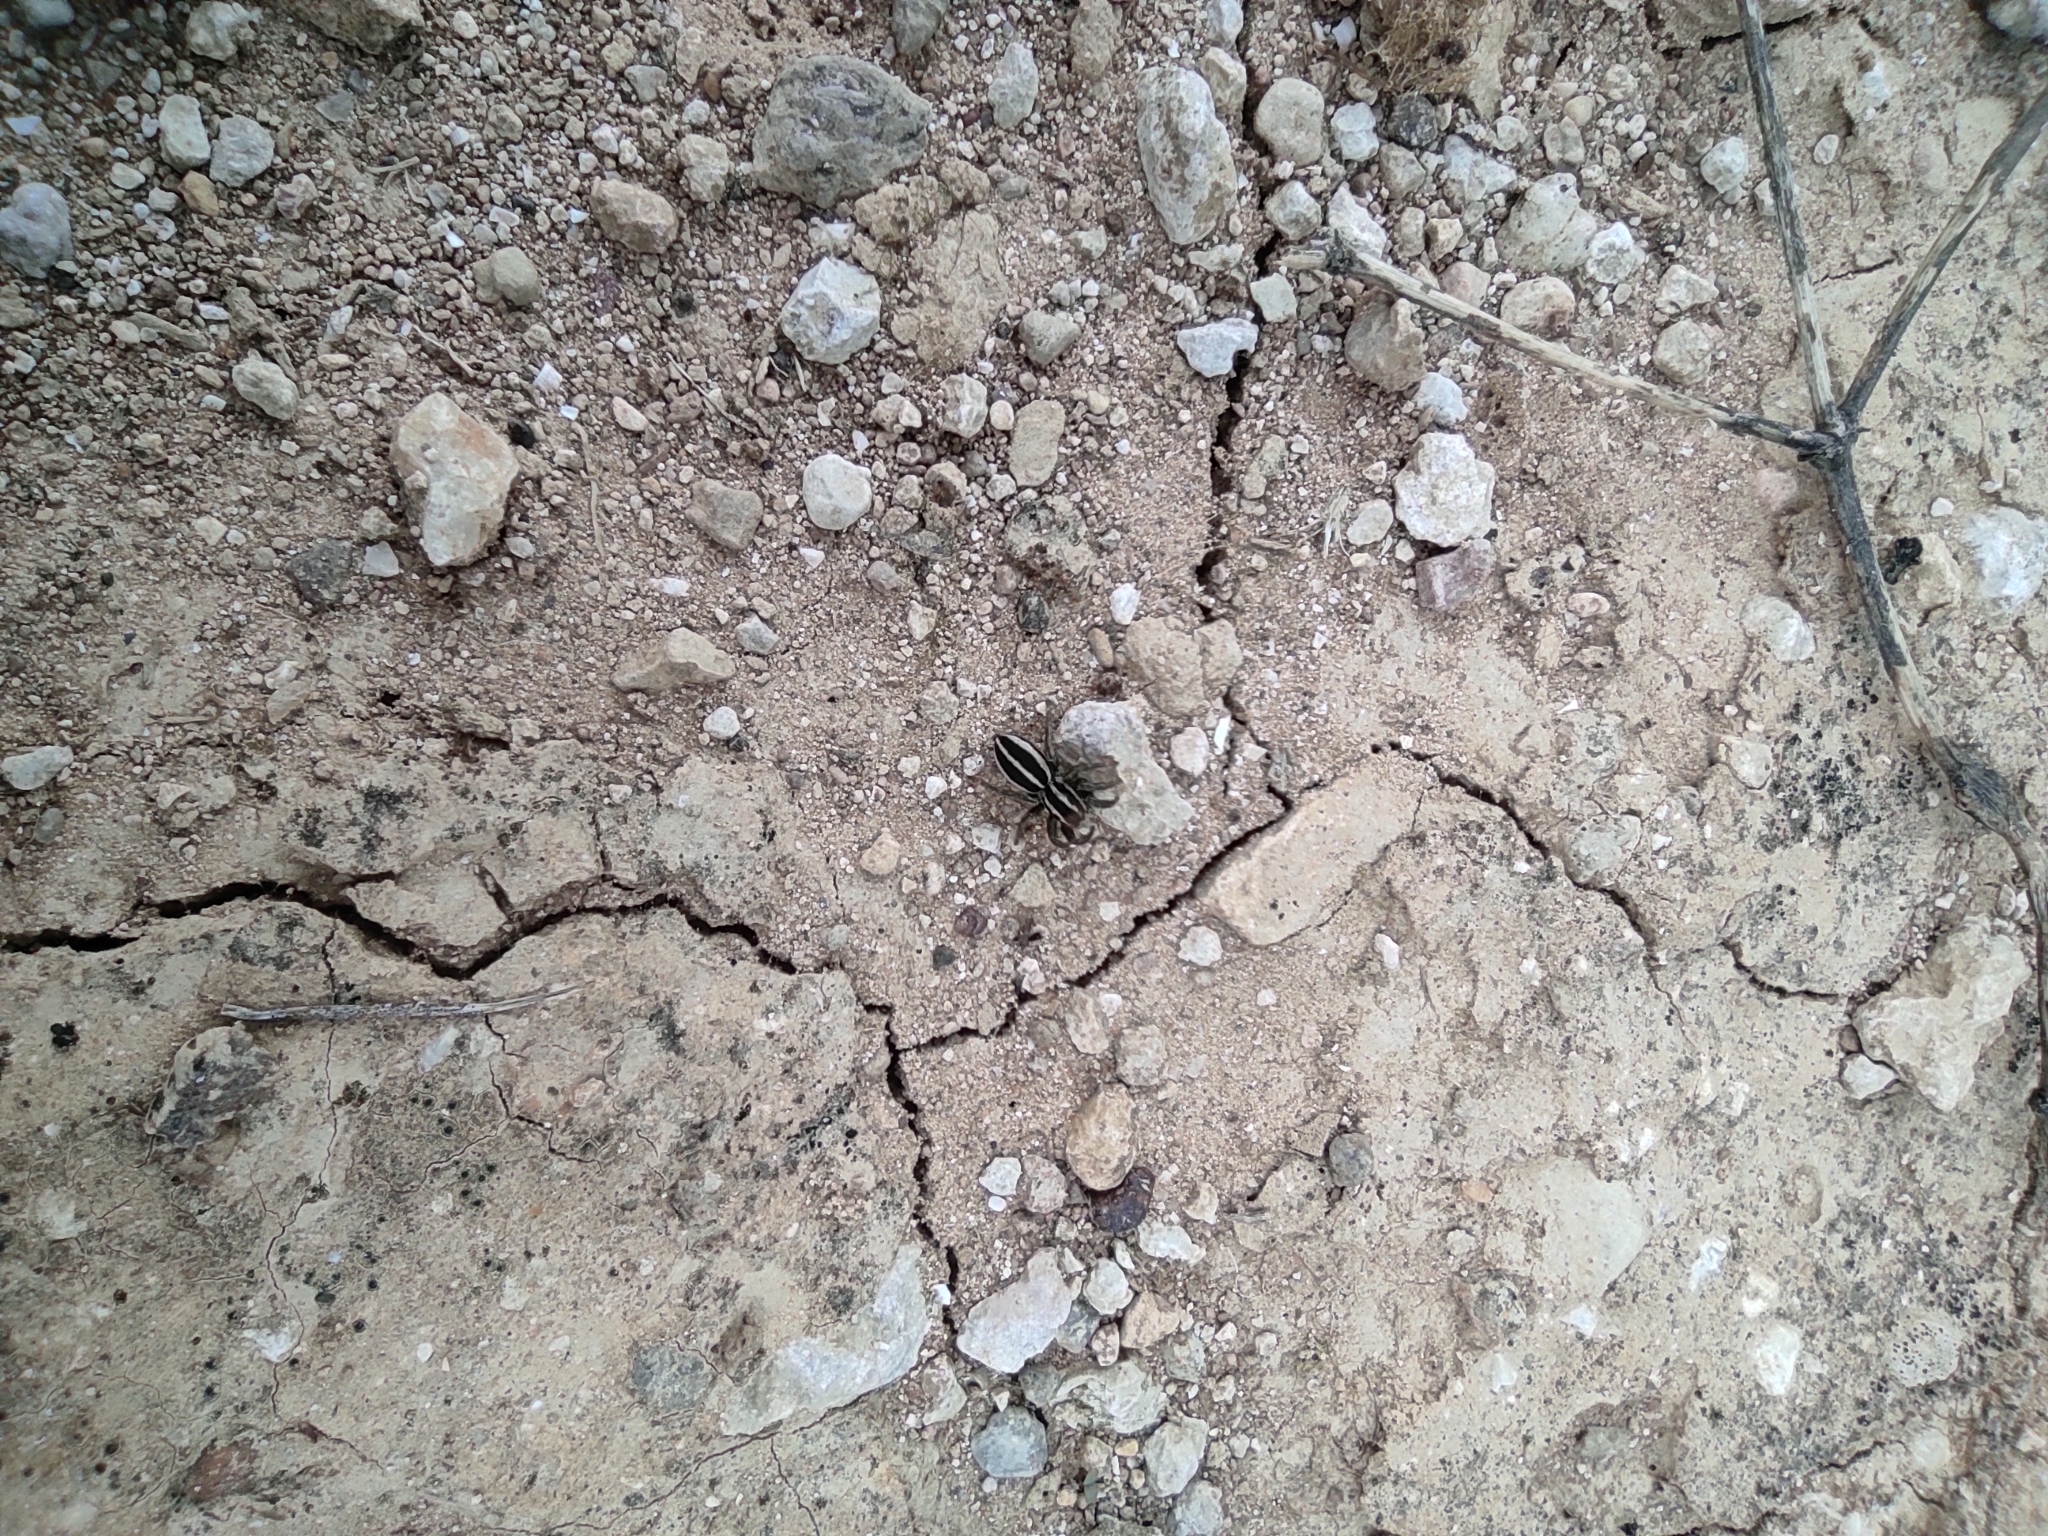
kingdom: Animalia
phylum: Arthropoda
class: Arachnida
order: Araneae
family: Salticidae
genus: Phlegra
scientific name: Phlegra bresnieri
